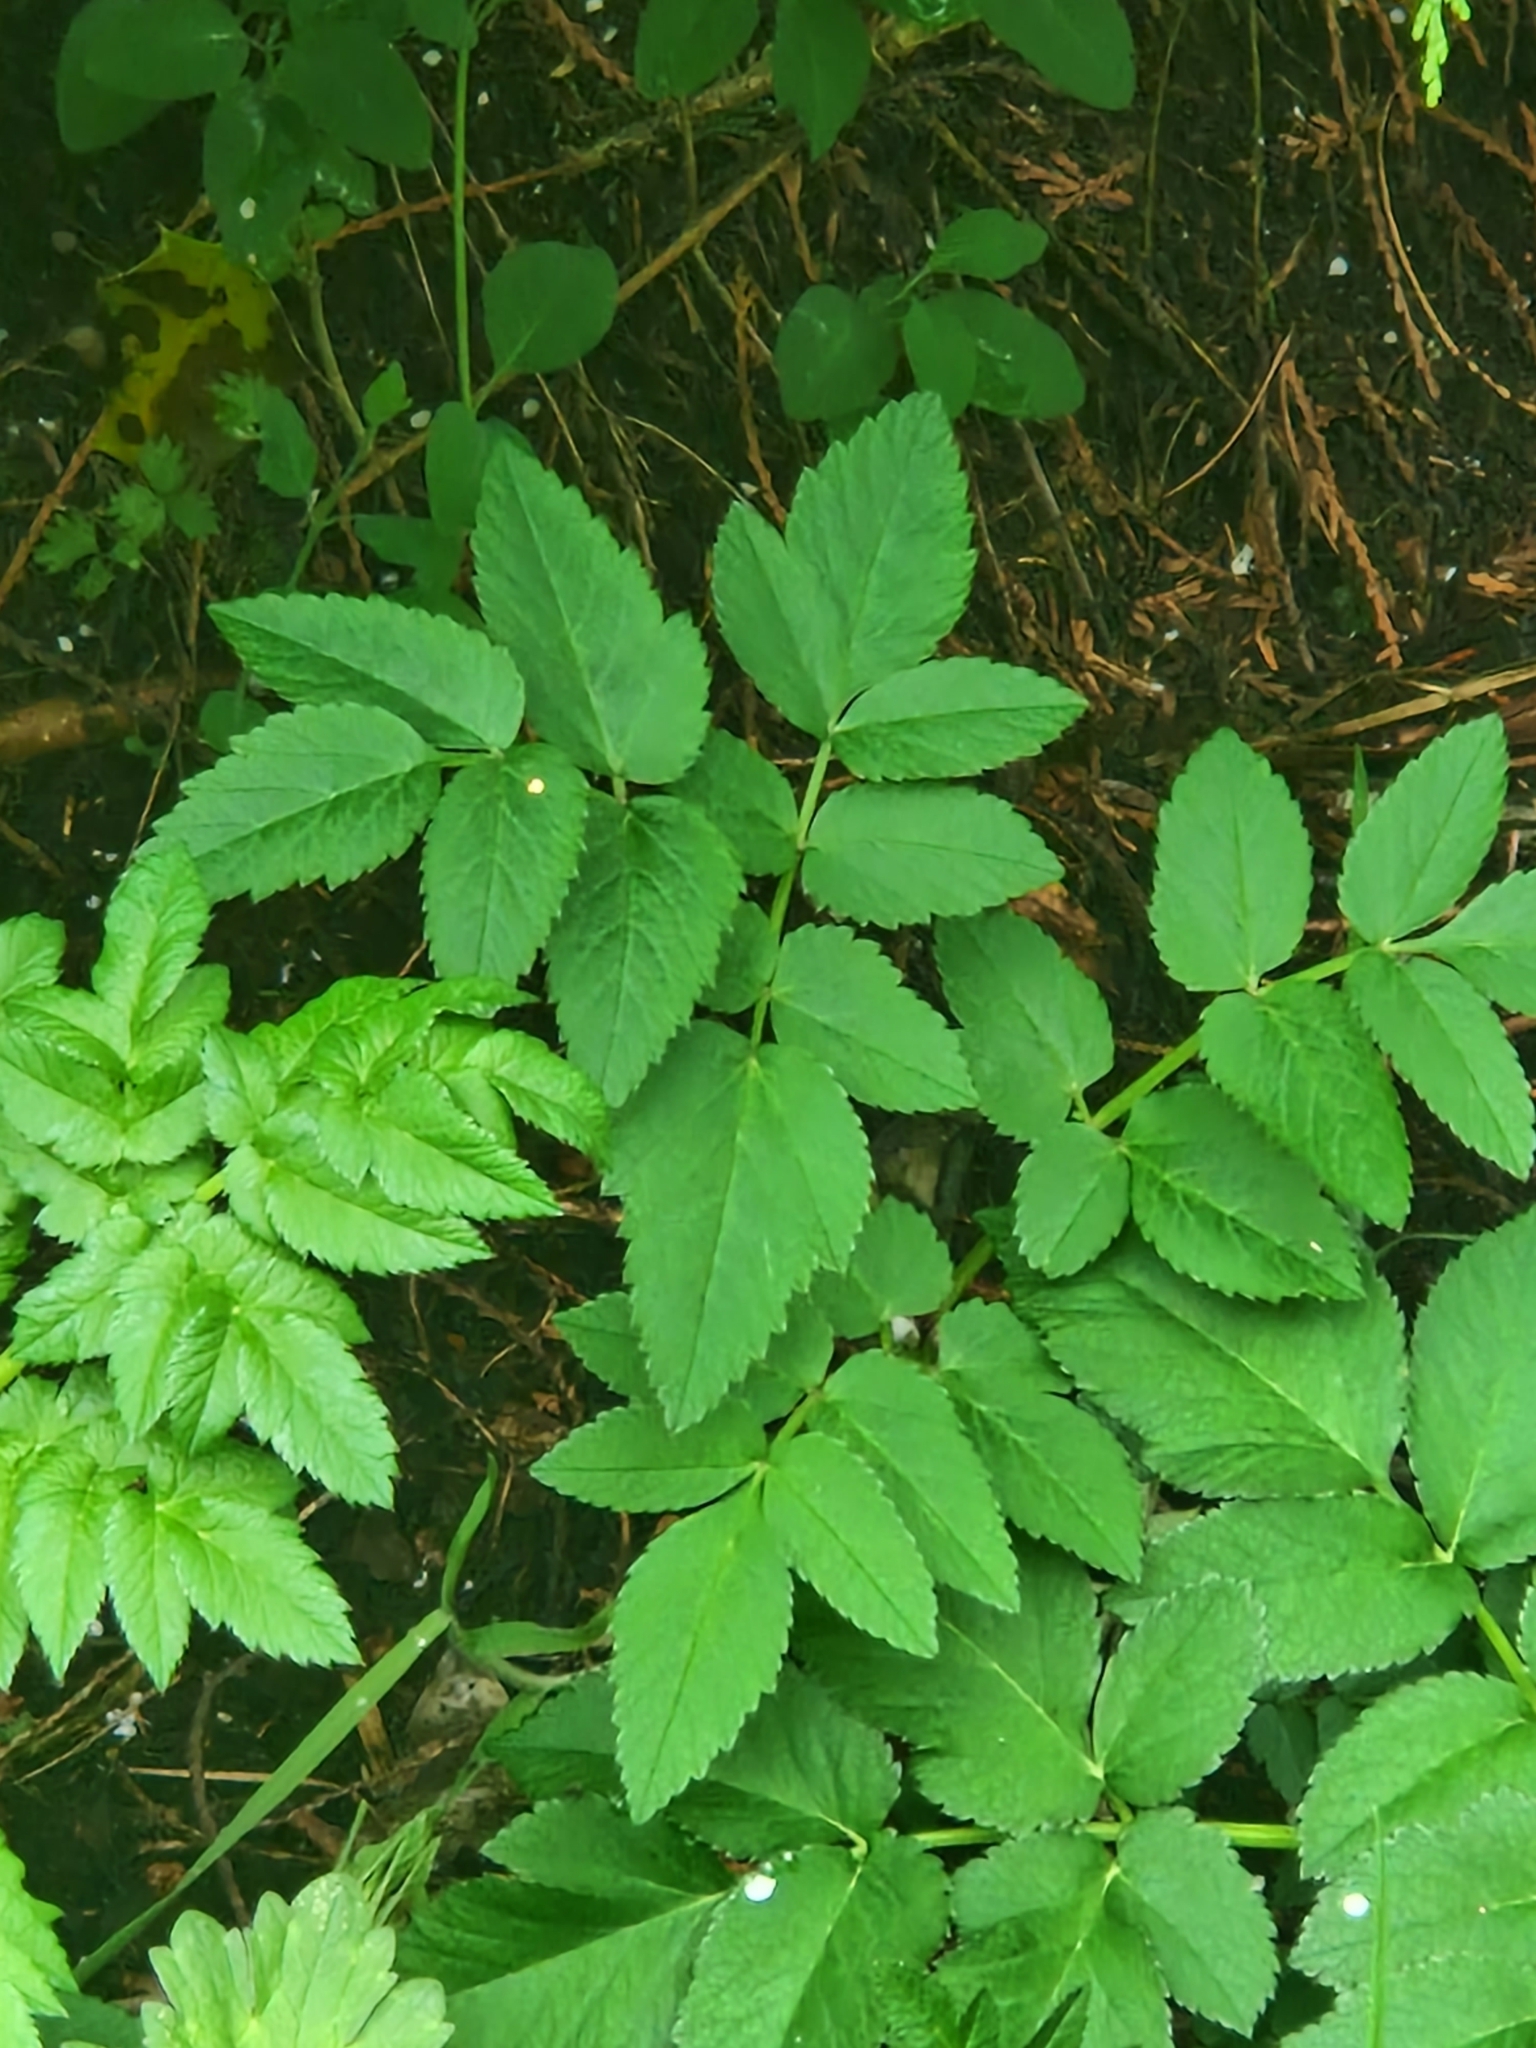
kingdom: Plantae
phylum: Tracheophyta
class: Magnoliopsida
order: Apiales
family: Apiaceae
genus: Aegopodium
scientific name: Aegopodium podagraria
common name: Ground-elder
